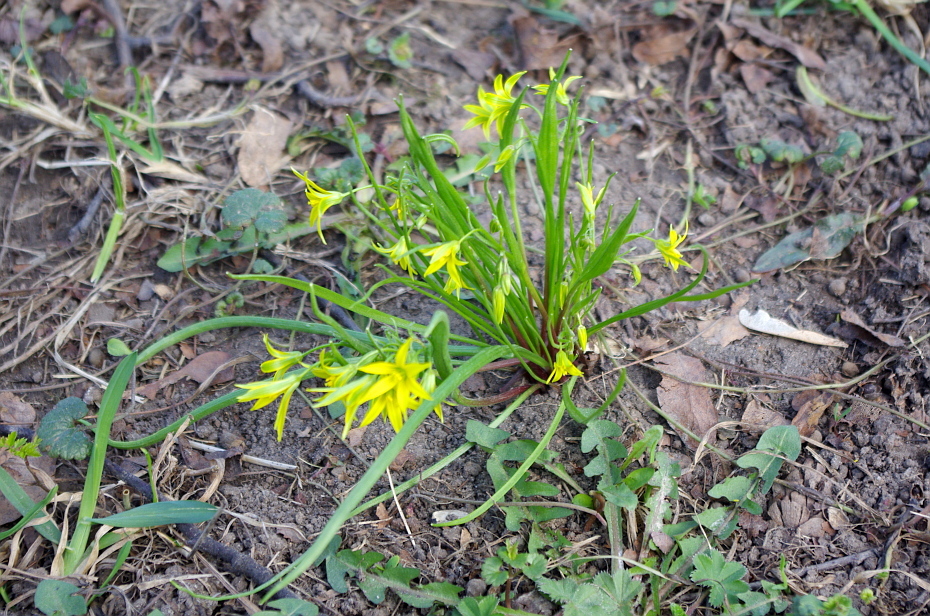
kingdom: Plantae
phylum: Tracheophyta
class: Liliopsida
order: Liliales
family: Liliaceae
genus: Gagea
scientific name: Gagea minima
